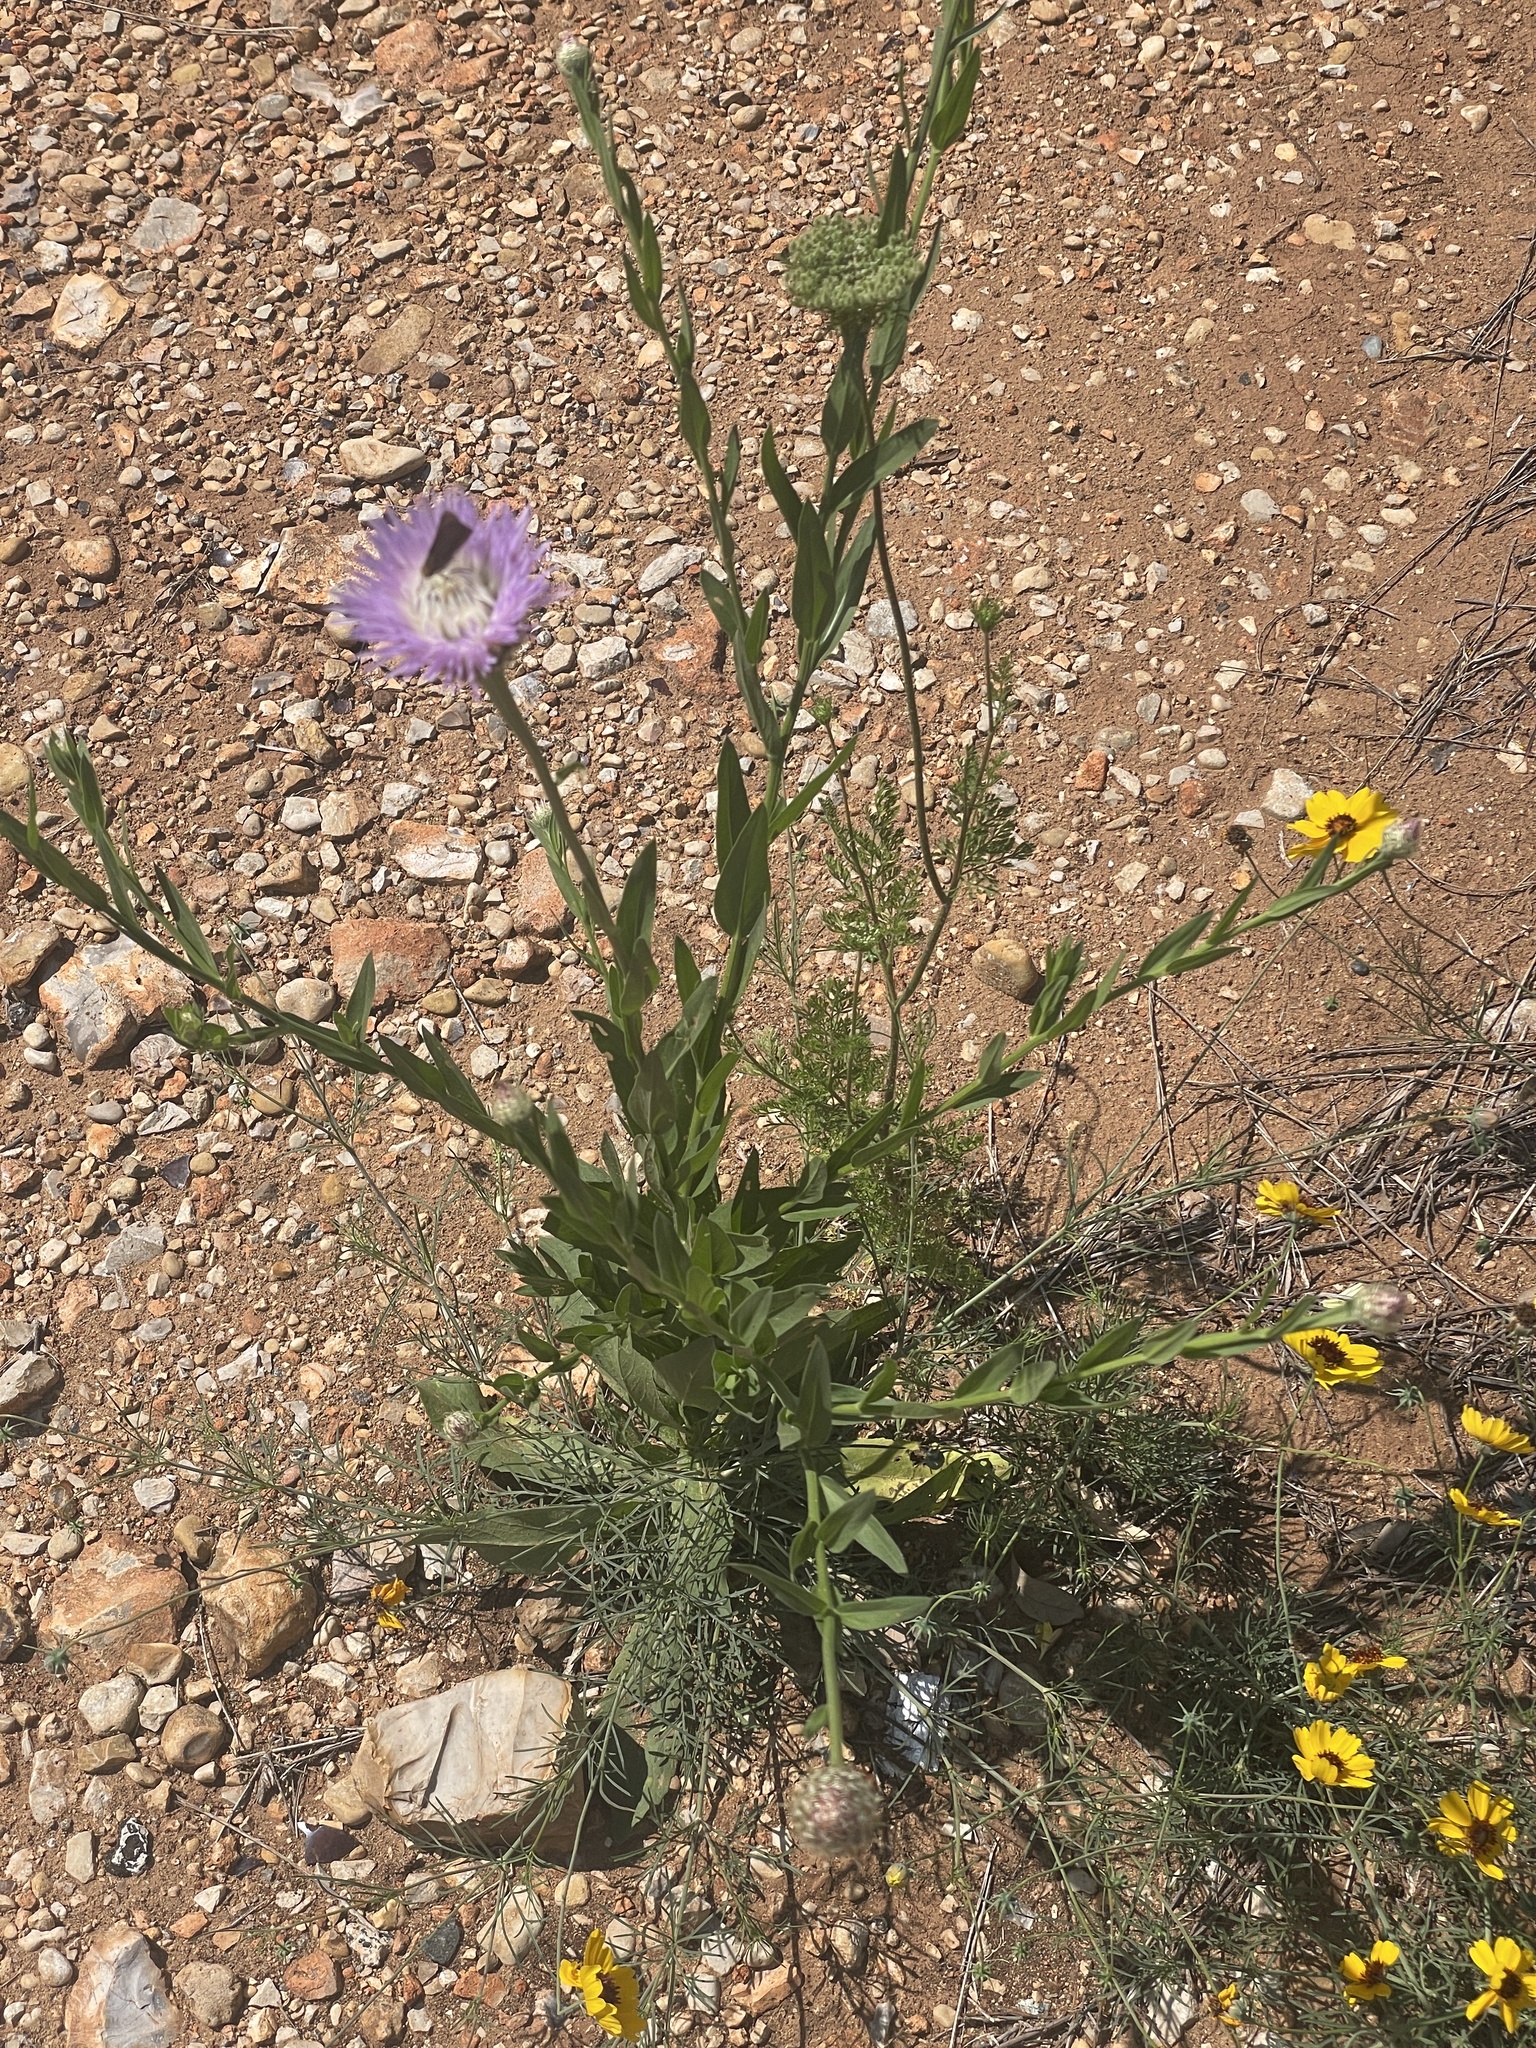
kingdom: Plantae
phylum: Tracheophyta
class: Magnoliopsida
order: Asterales
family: Asteraceae
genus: Plectocephalus
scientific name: Plectocephalus americanus
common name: American basket-flower
